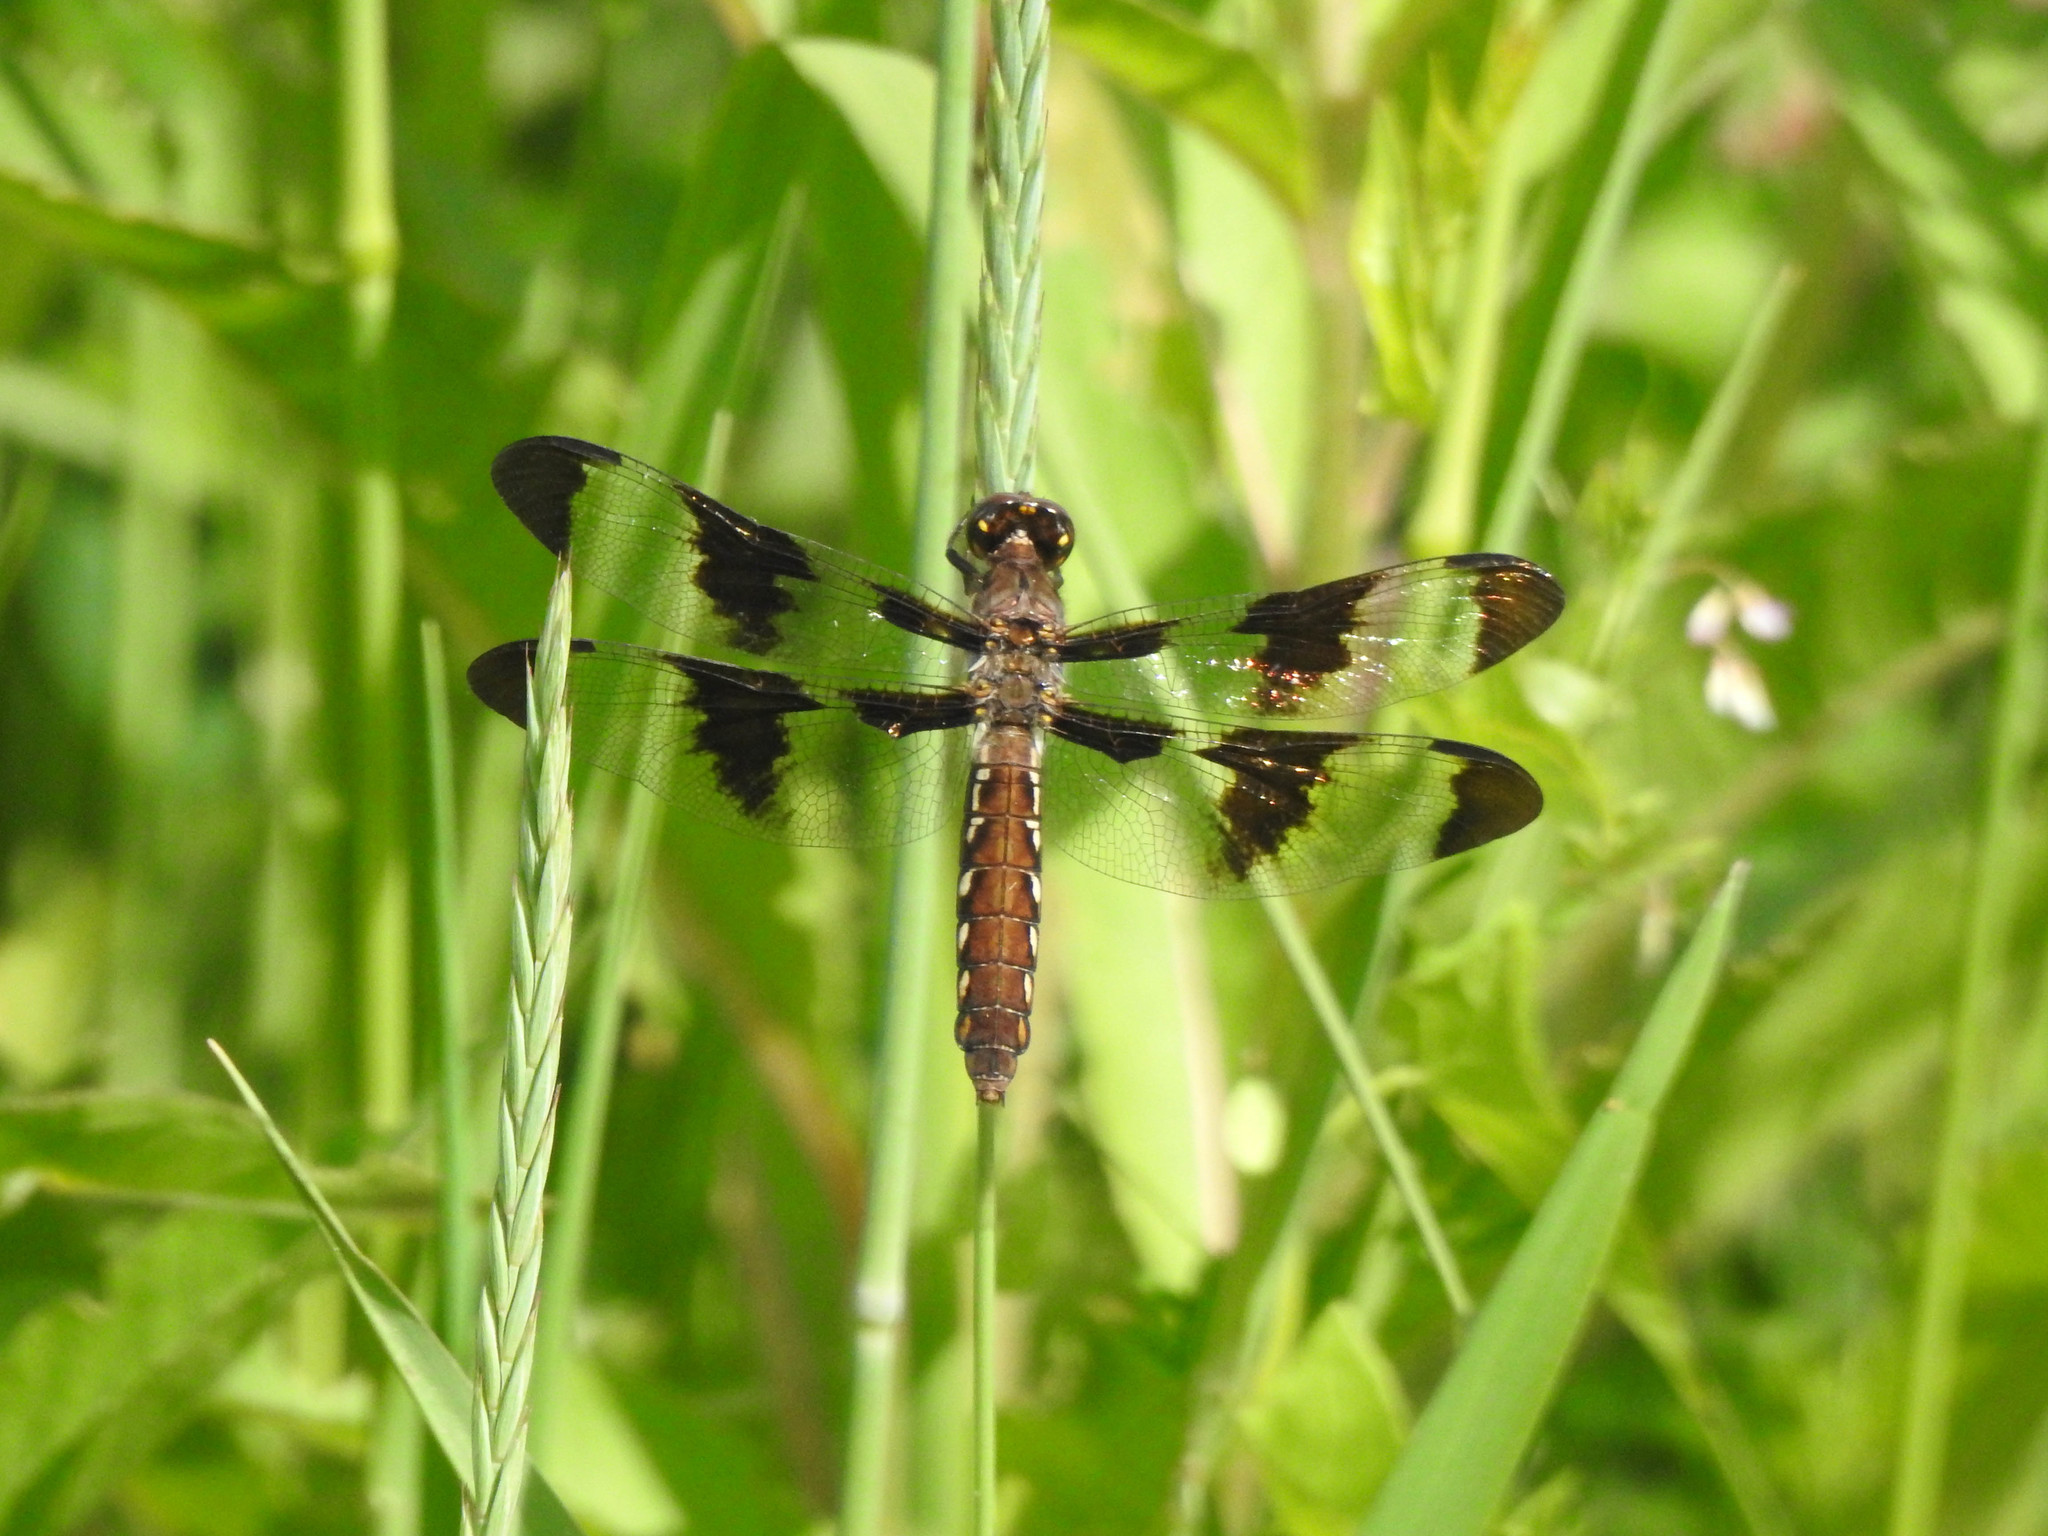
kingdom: Animalia
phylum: Arthropoda
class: Insecta
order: Odonata
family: Libellulidae
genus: Plathemis
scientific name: Plathemis lydia
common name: Common whitetail
